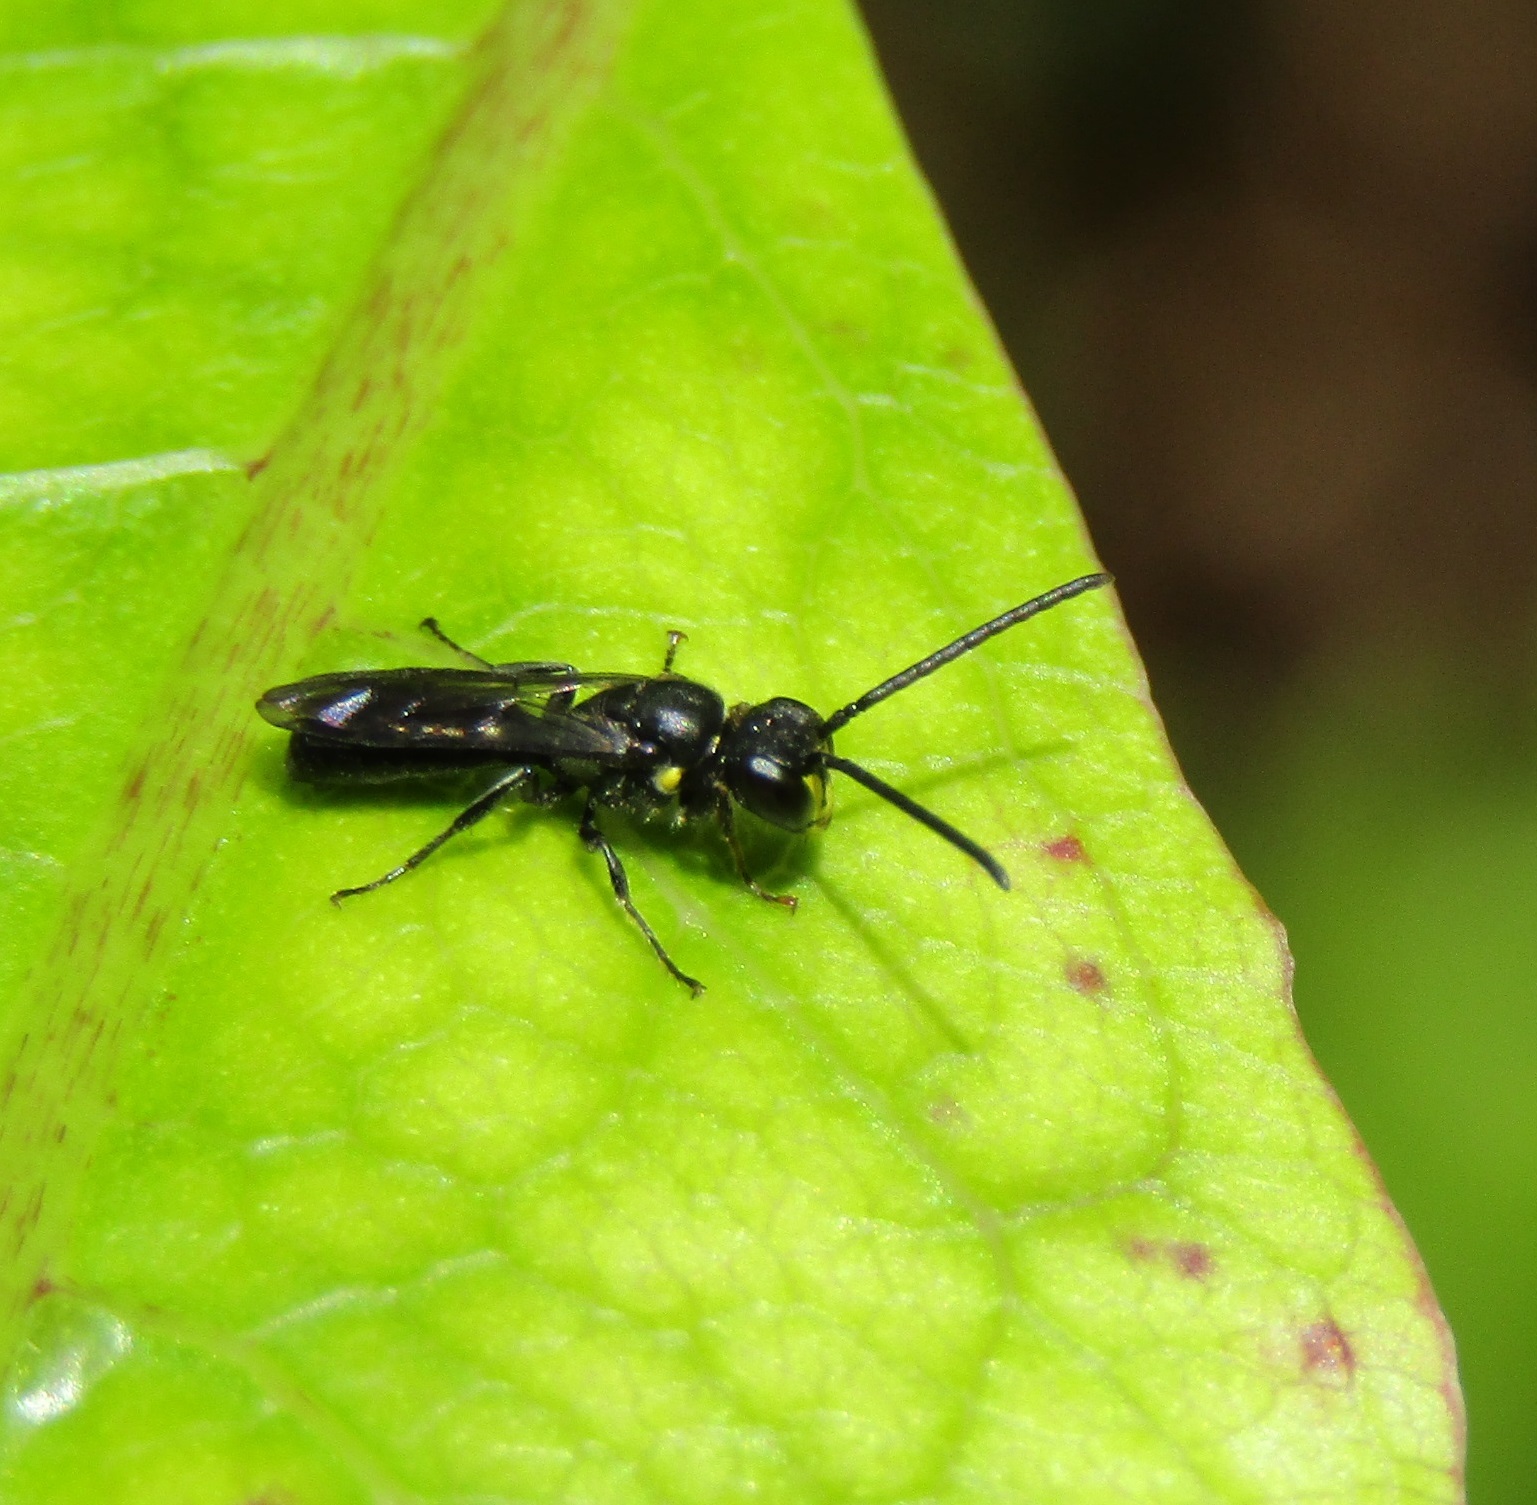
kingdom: Animalia
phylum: Arthropoda
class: Insecta
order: Hymenoptera
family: Colletidae
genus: Hylaeus
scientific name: Hylaeus agilis
